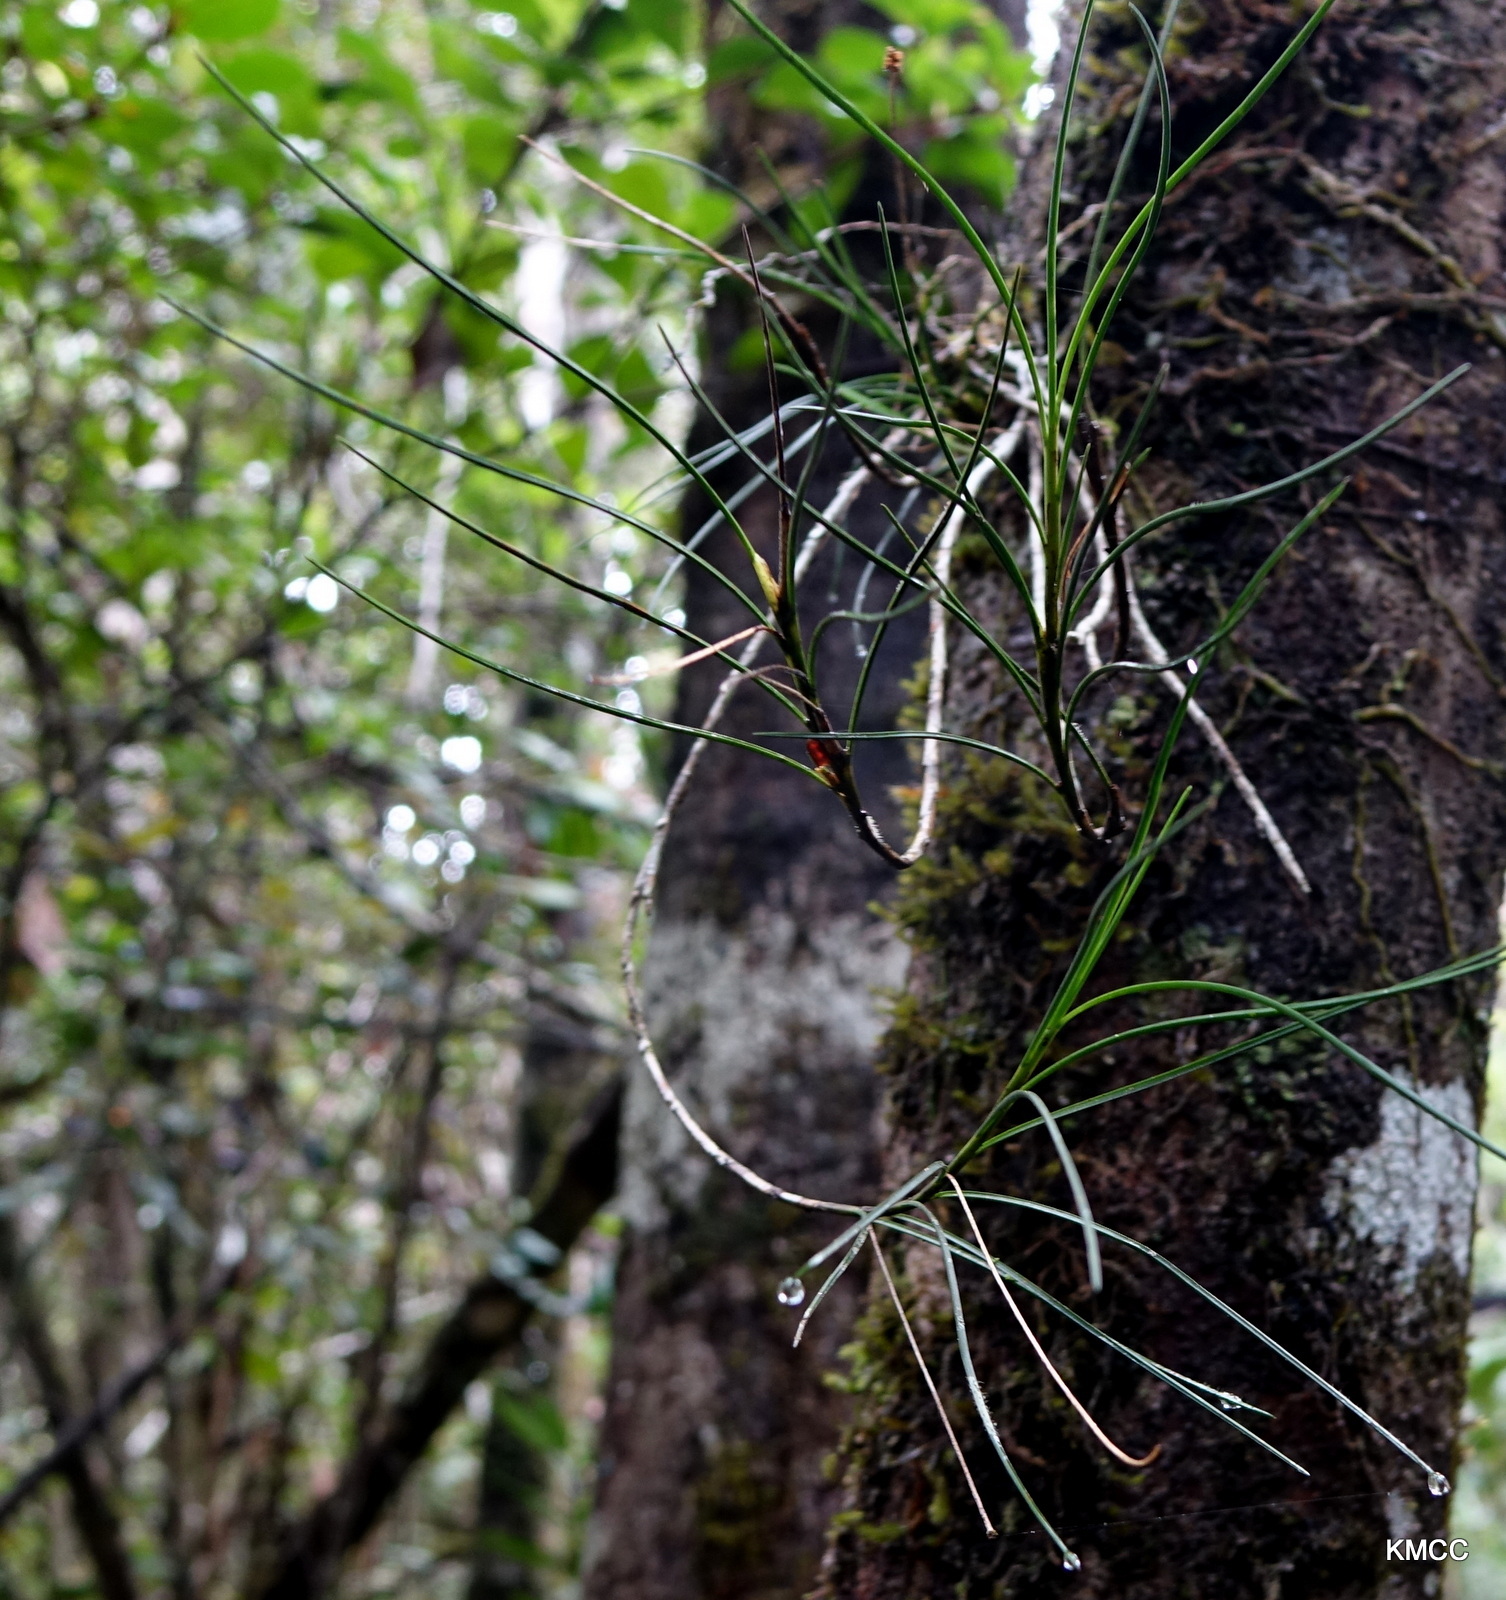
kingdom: Plantae
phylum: Tracheophyta
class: Liliopsida
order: Asparagales
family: Orchidaceae
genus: Angraecum
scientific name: Angraecum linearifolium
